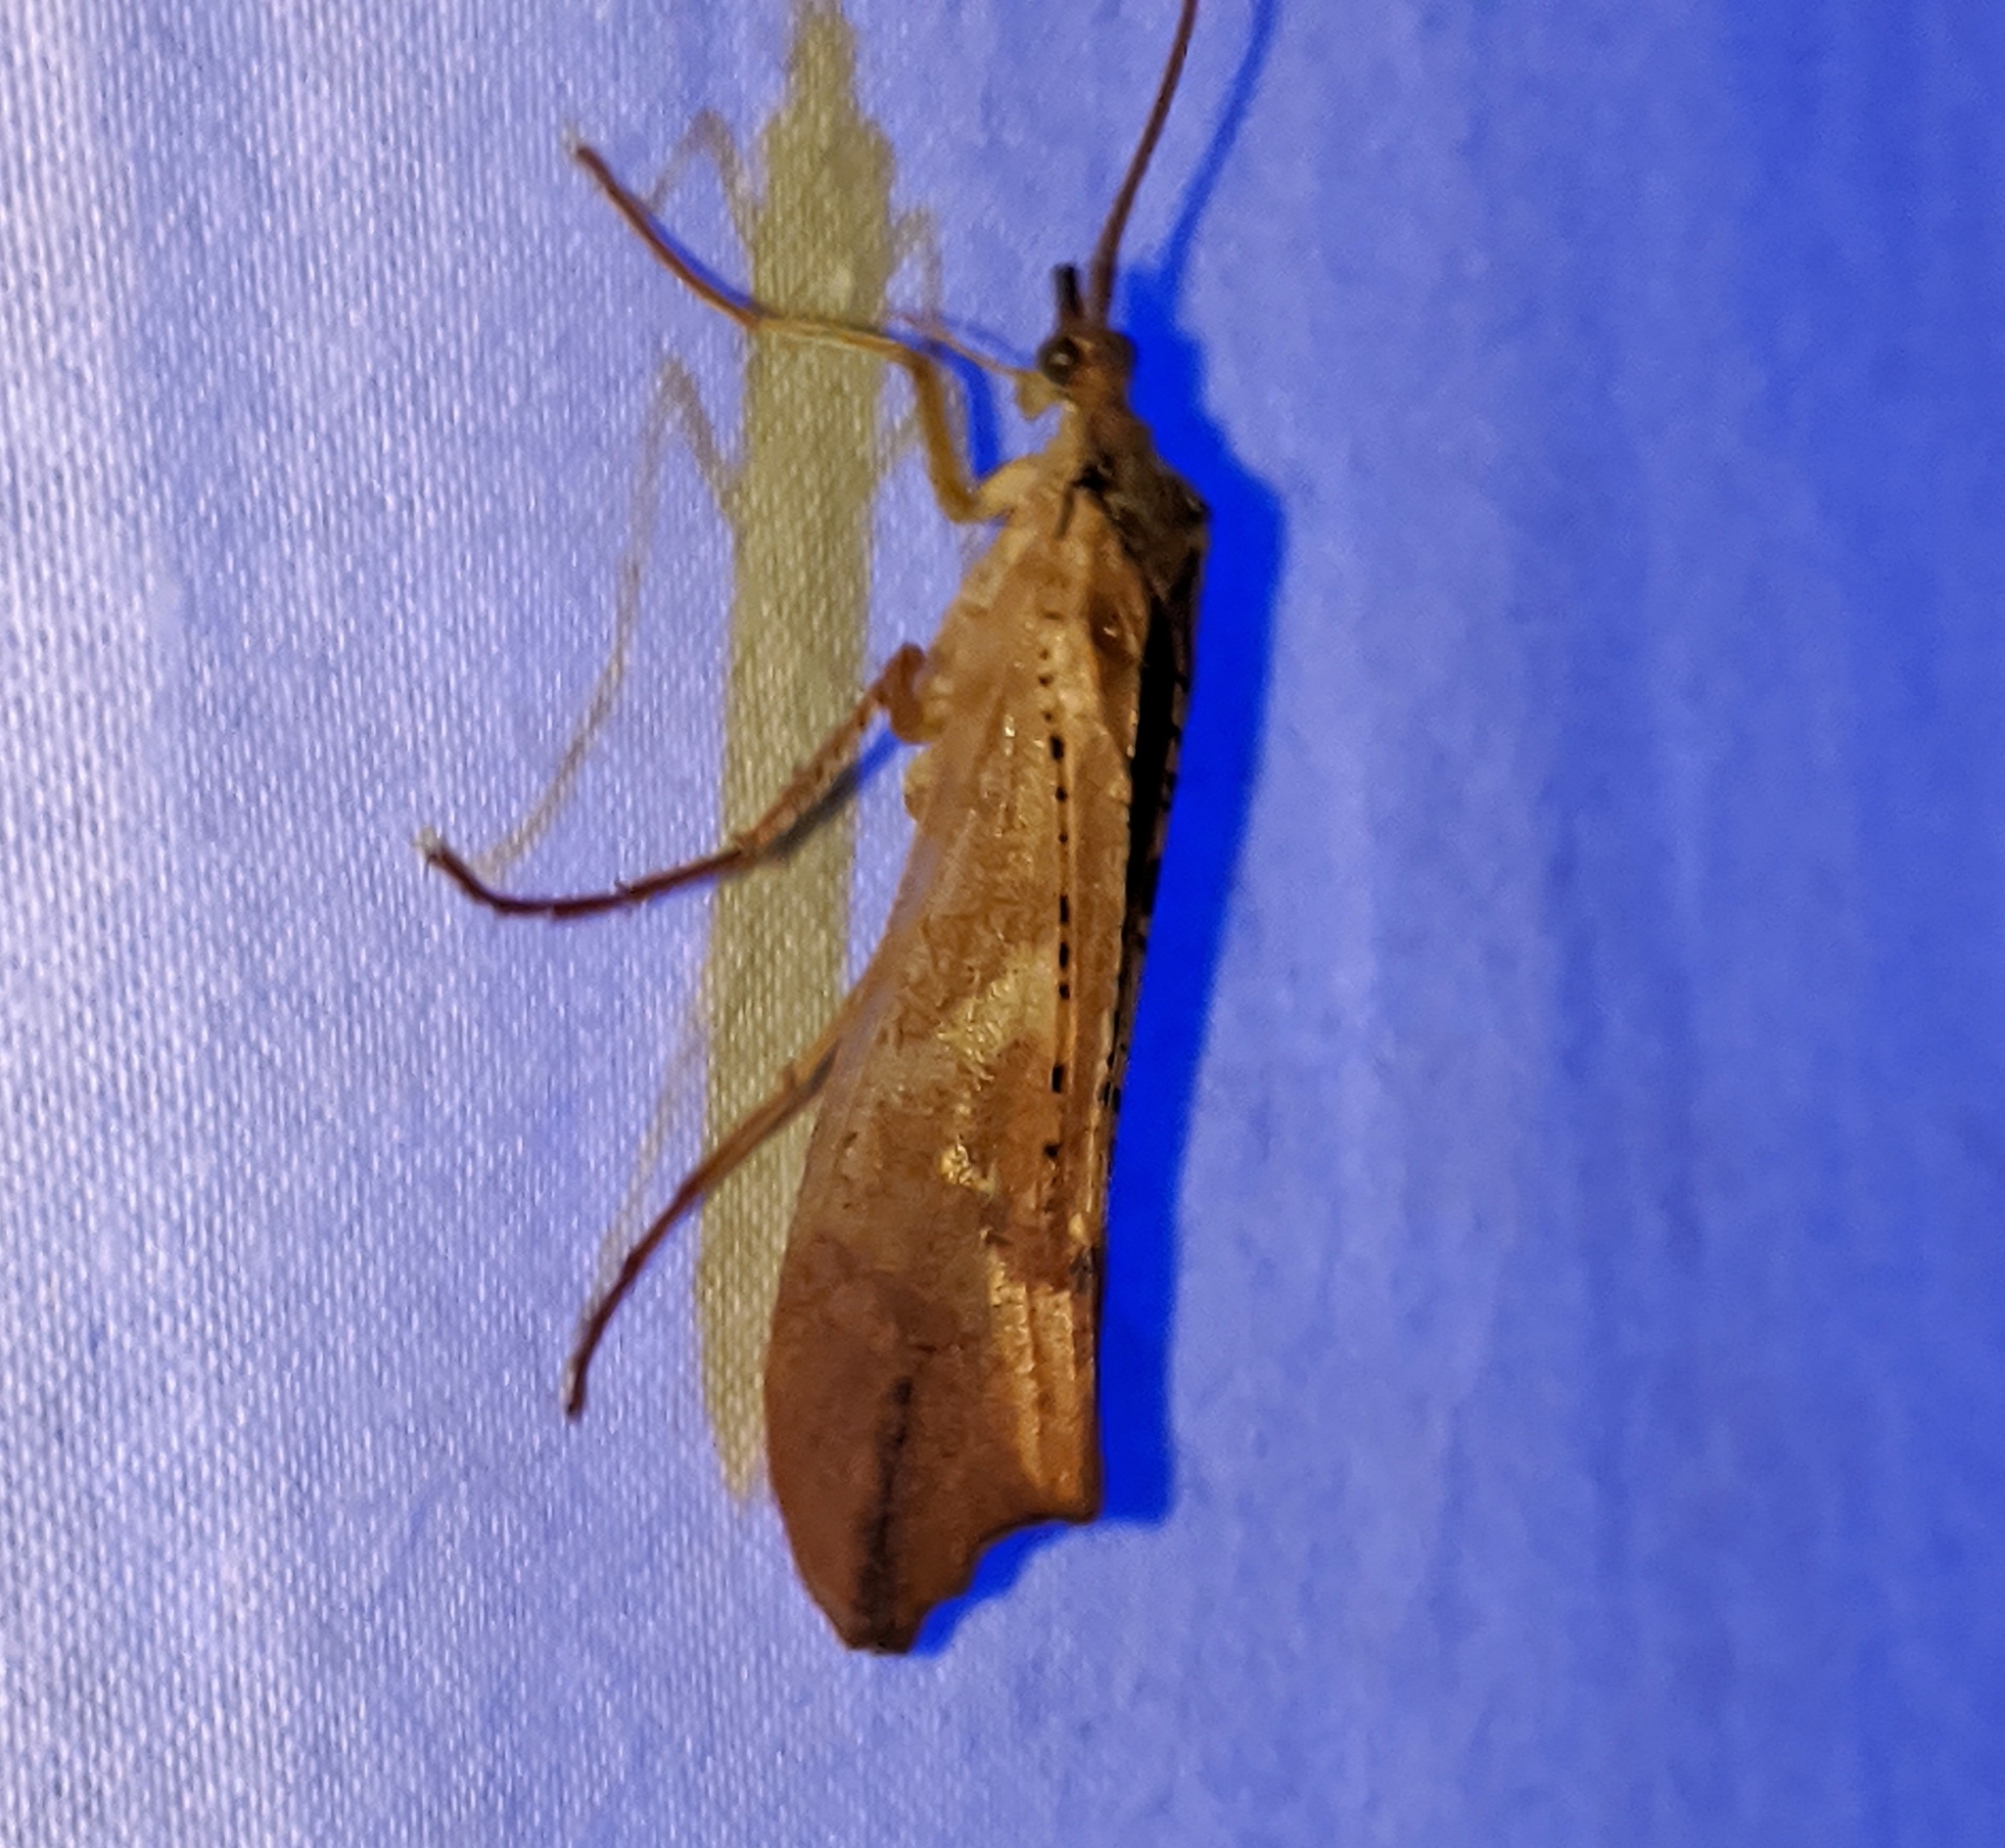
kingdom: Animalia
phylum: Arthropoda
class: Insecta
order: Trichoptera
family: Limnephilidae
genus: Nemotaulius
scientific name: Nemotaulius hostilis
